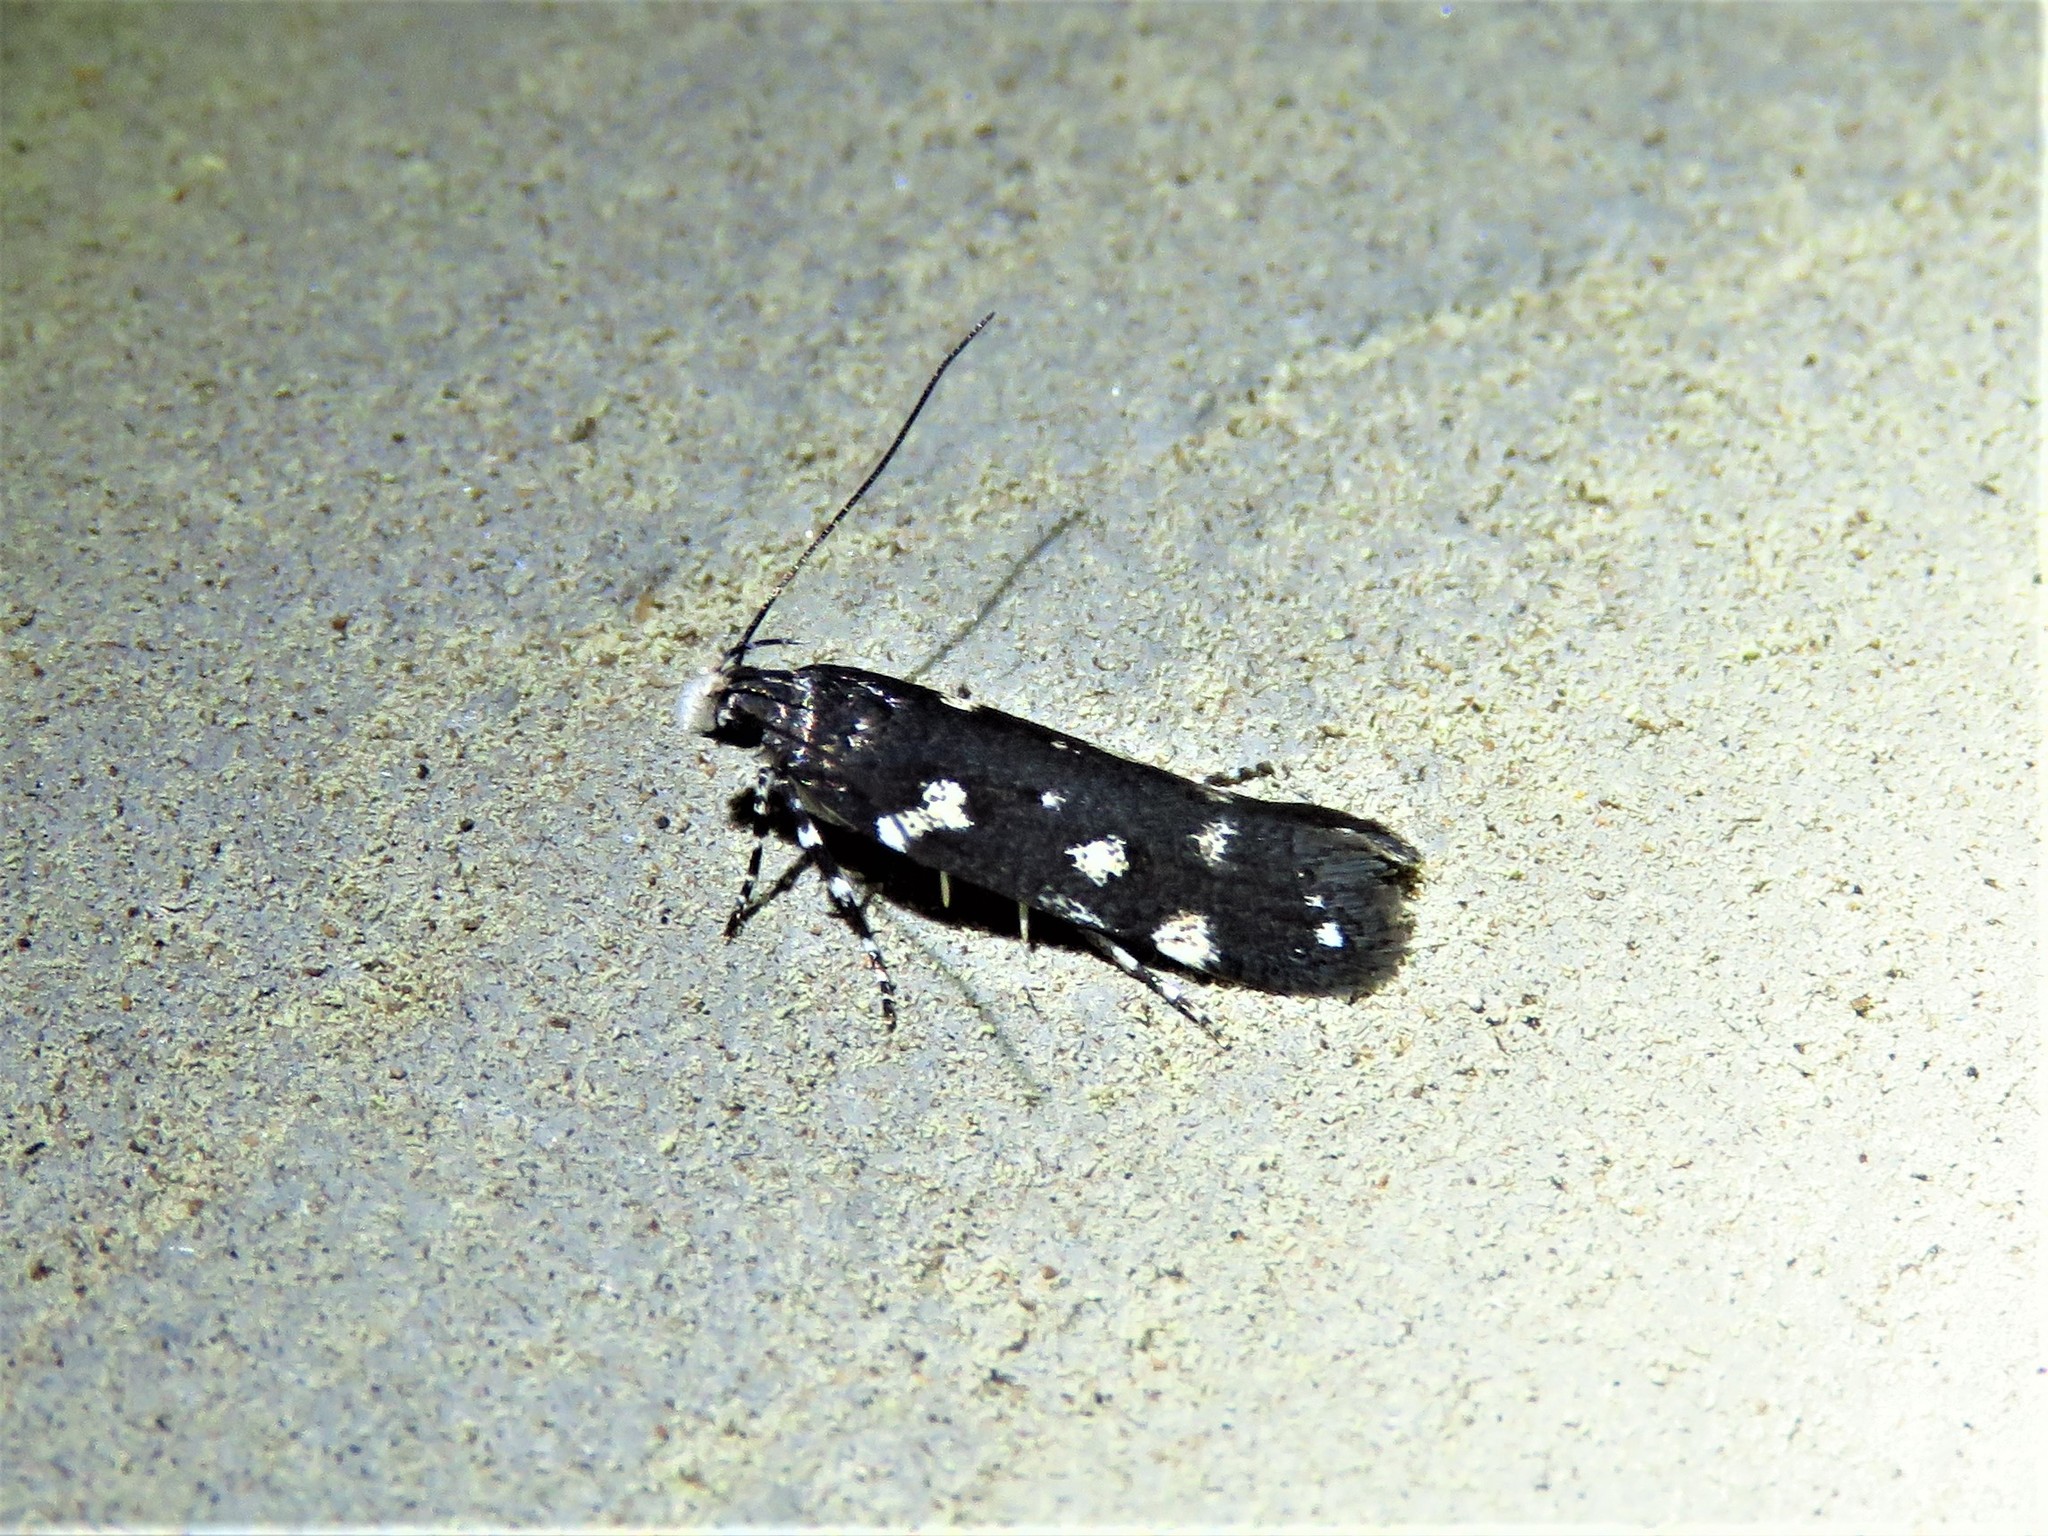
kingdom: Animalia
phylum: Arthropoda
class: Insecta
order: Lepidoptera
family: Gelechiidae
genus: Aroga
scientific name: Aroga compositella
